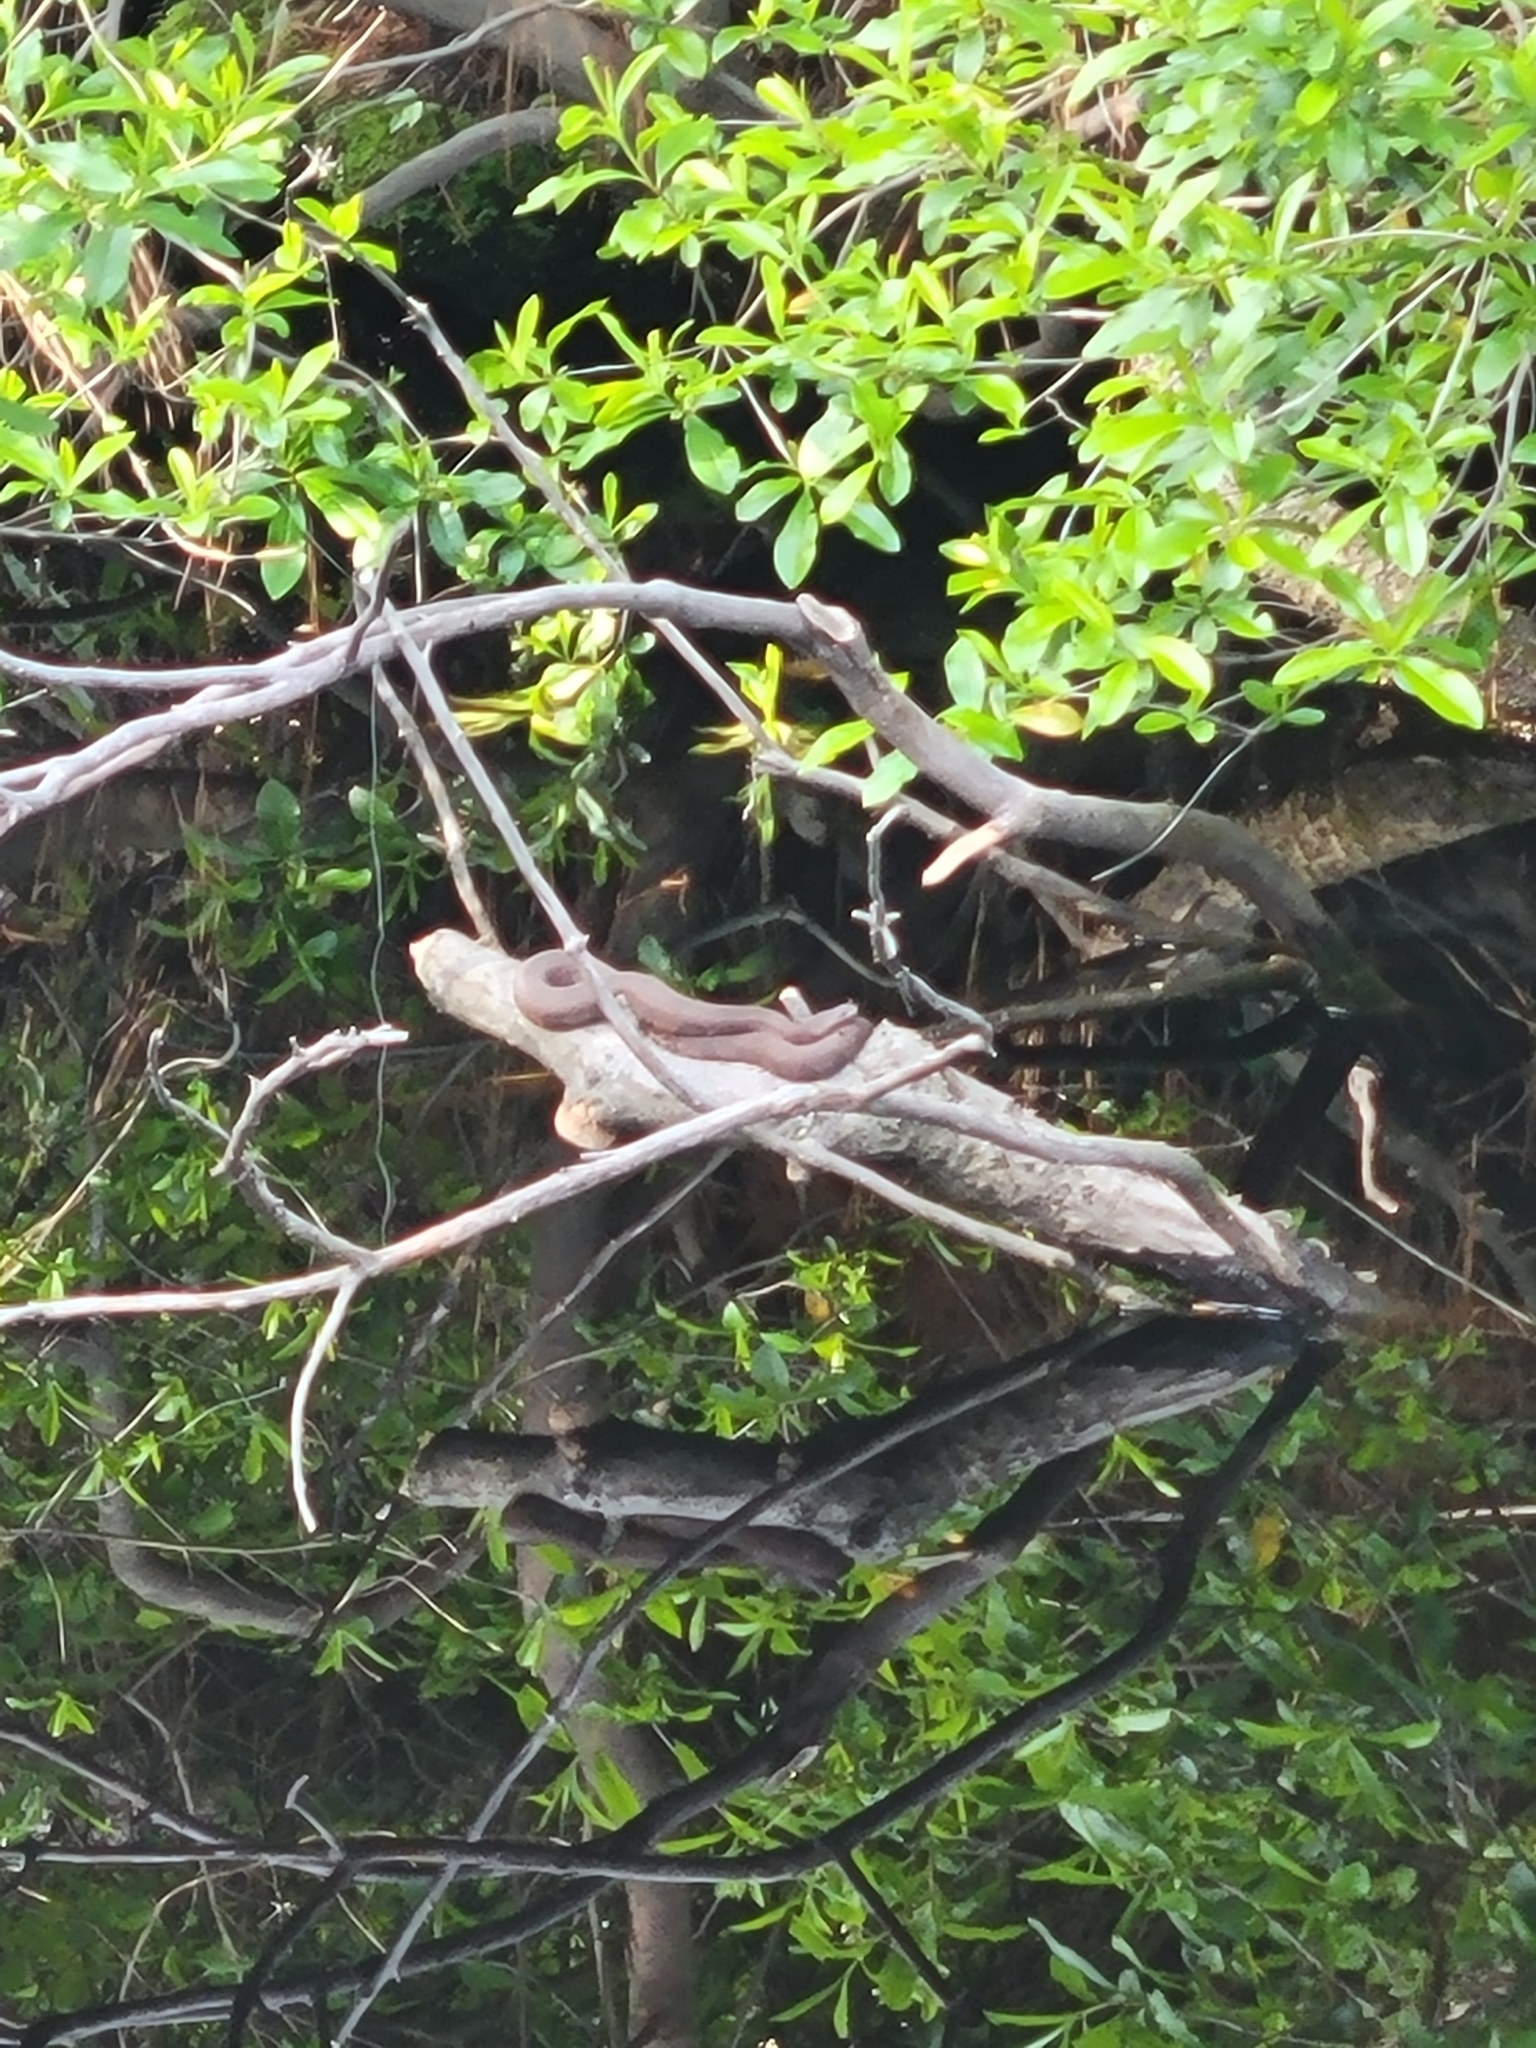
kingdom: Animalia
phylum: Chordata
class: Squamata
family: Colubridae
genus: Nerodia
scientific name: Nerodia taxispilota
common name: Brown water snake
